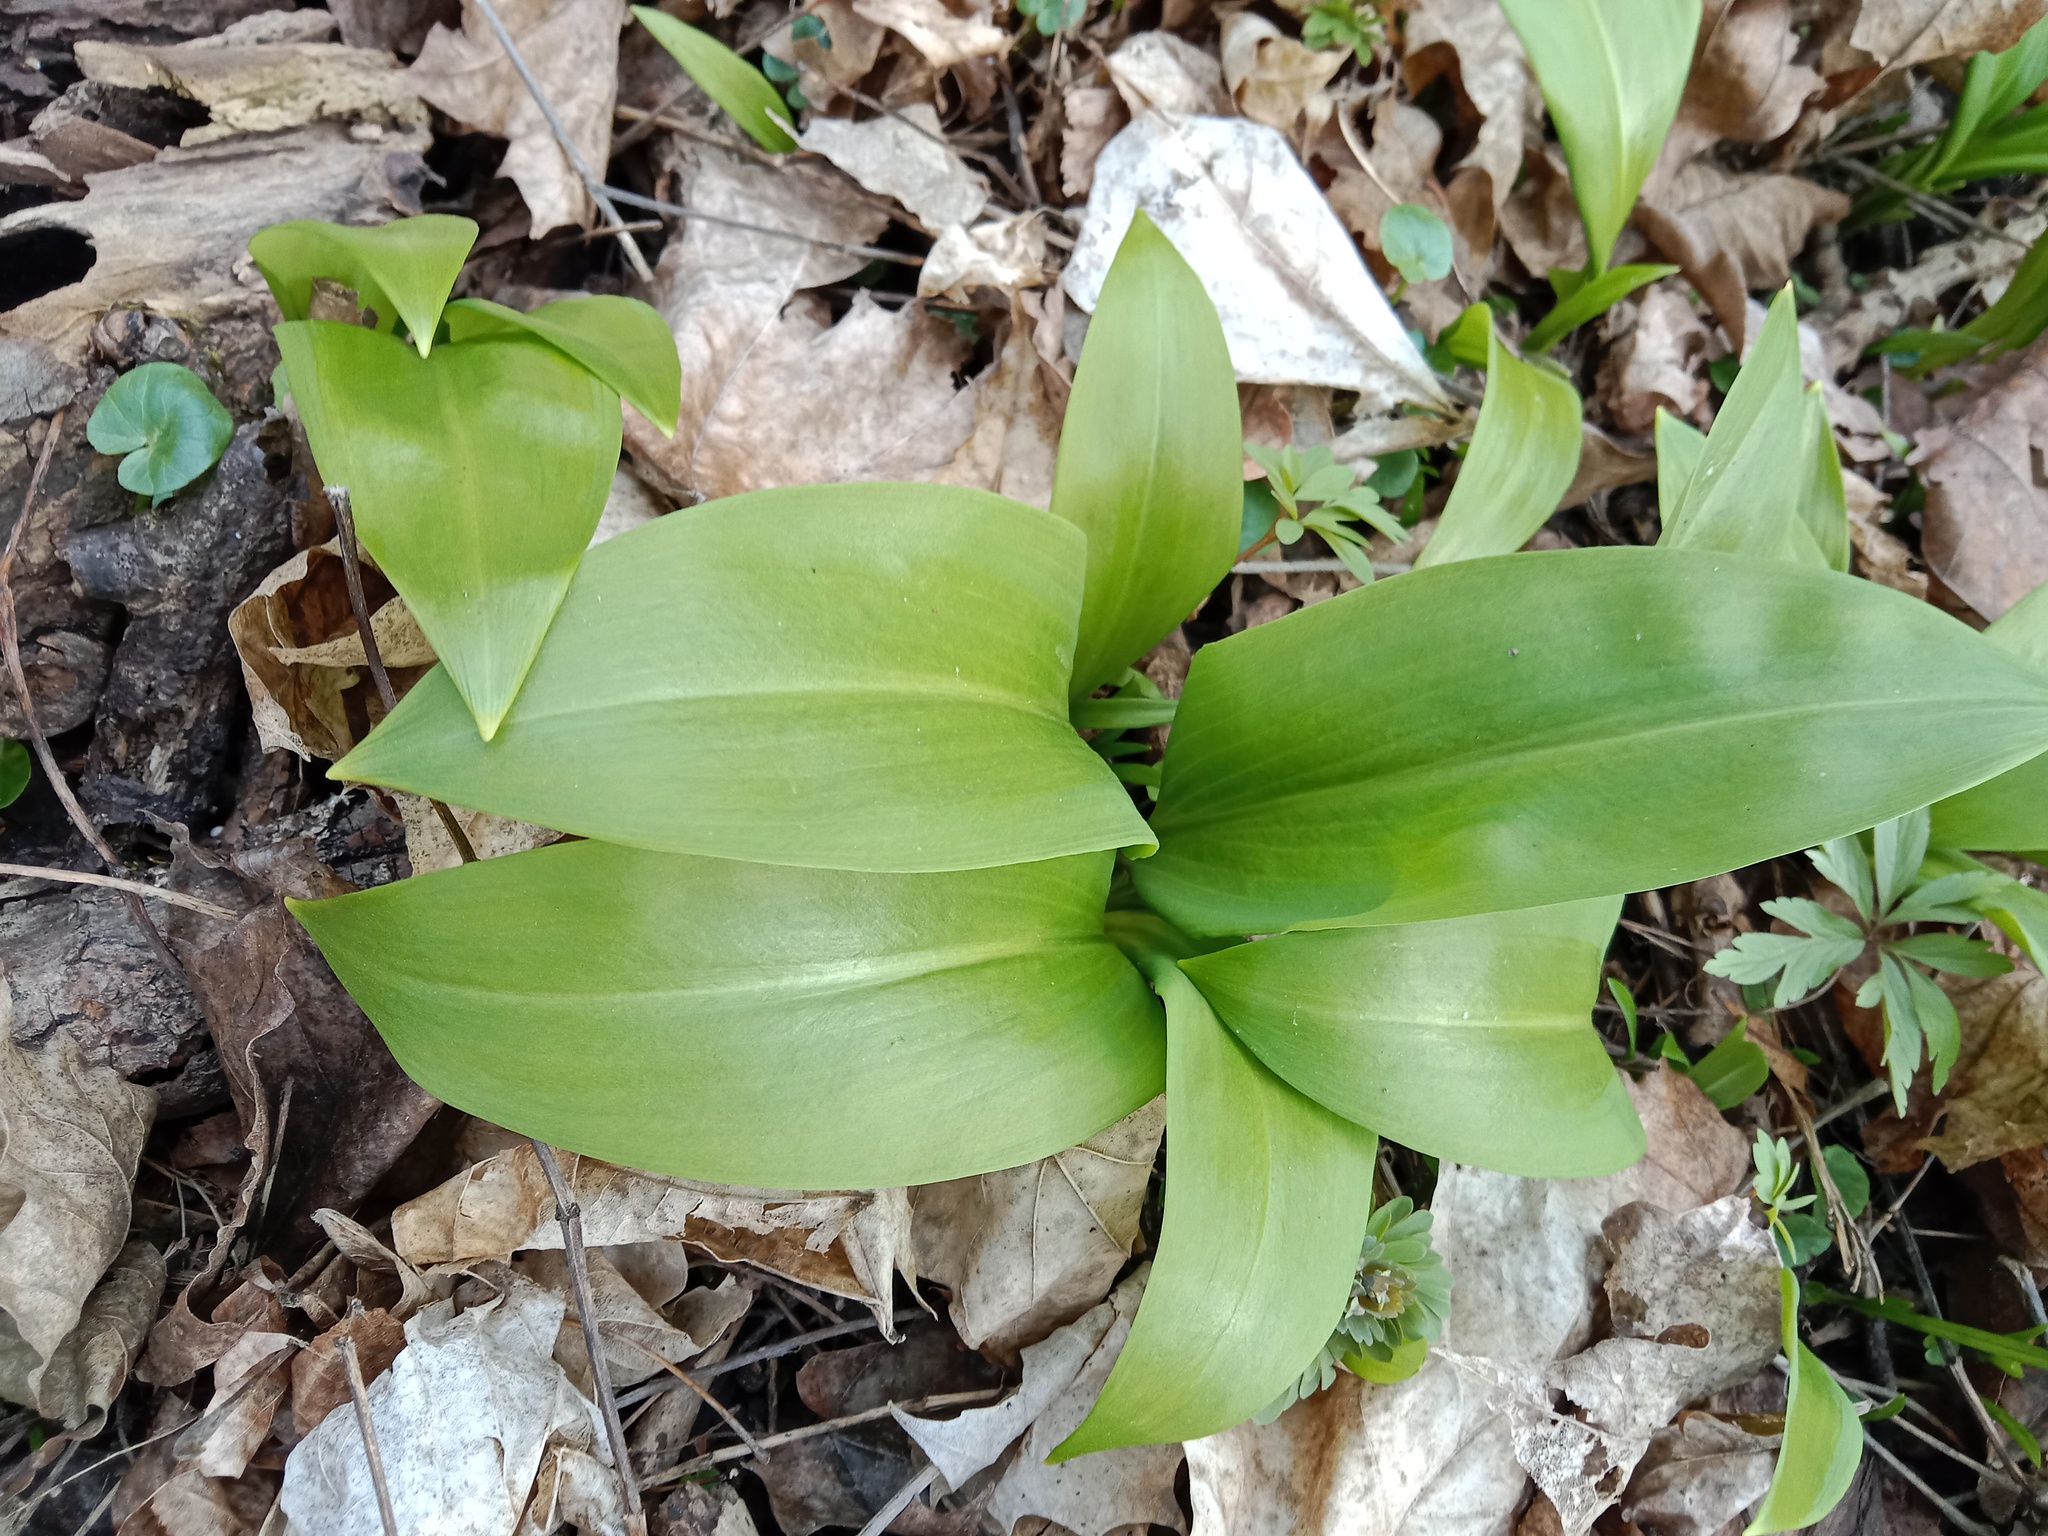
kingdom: Plantae
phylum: Tracheophyta
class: Liliopsida
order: Asparagales
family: Amaryllidaceae
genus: Allium
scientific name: Allium ursinum
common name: Ramsons
